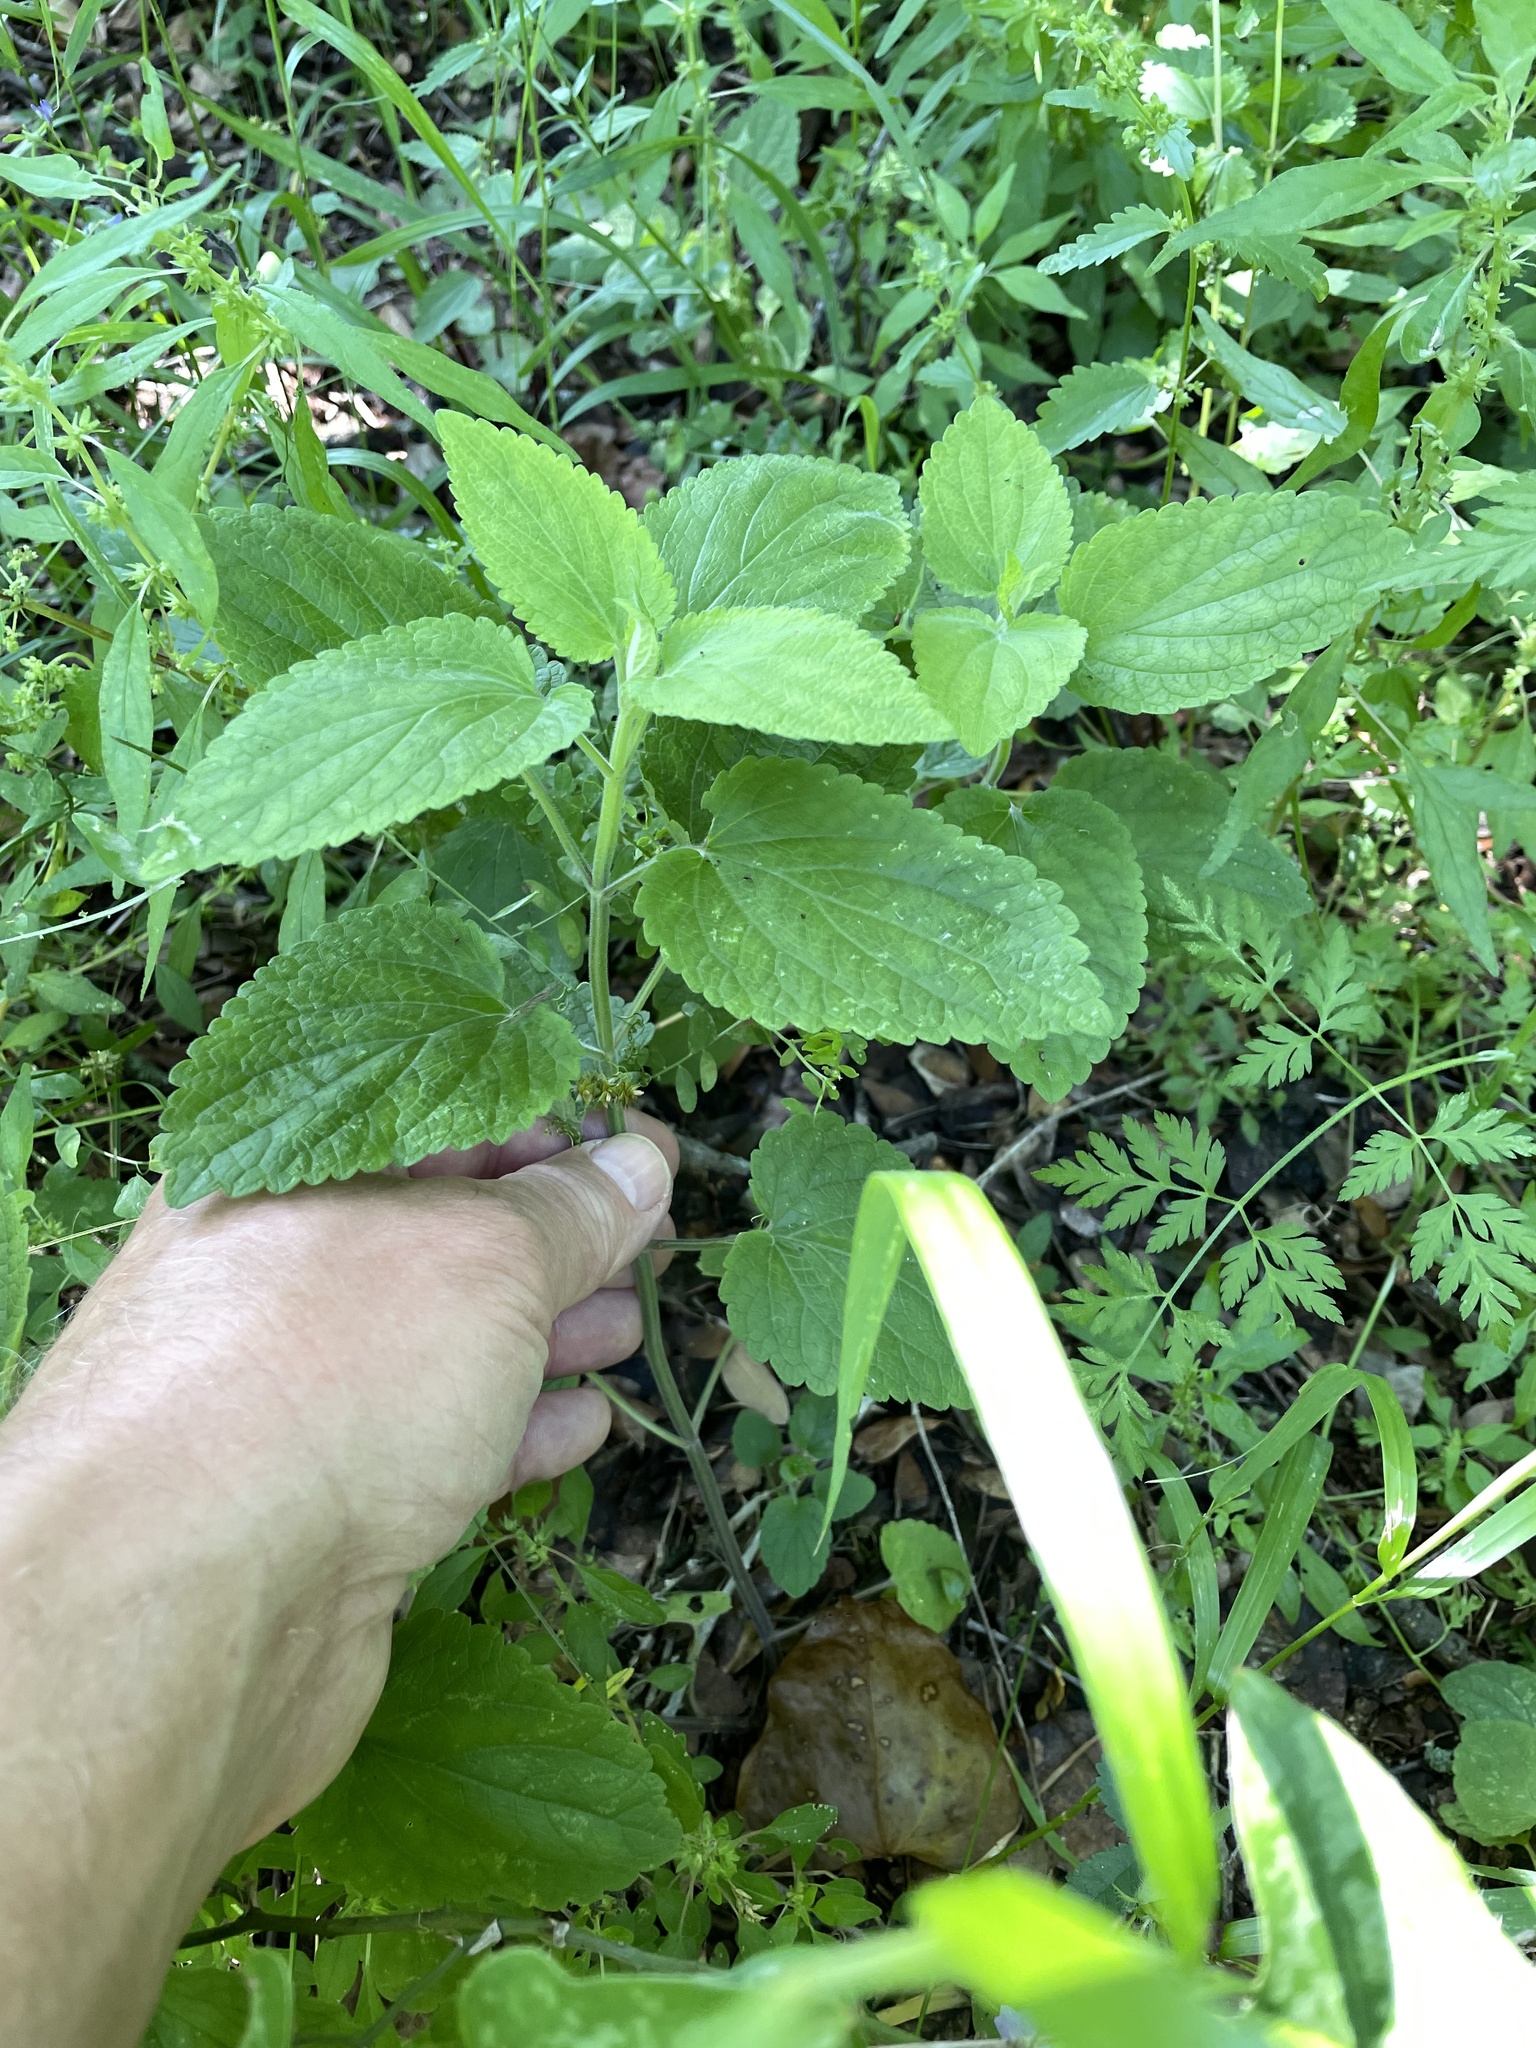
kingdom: Plantae
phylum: Tracheophyta
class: Magnoliopsida
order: Lamiales
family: Lamiaceae
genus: Scutellaria
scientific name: Scutellaria ovata
